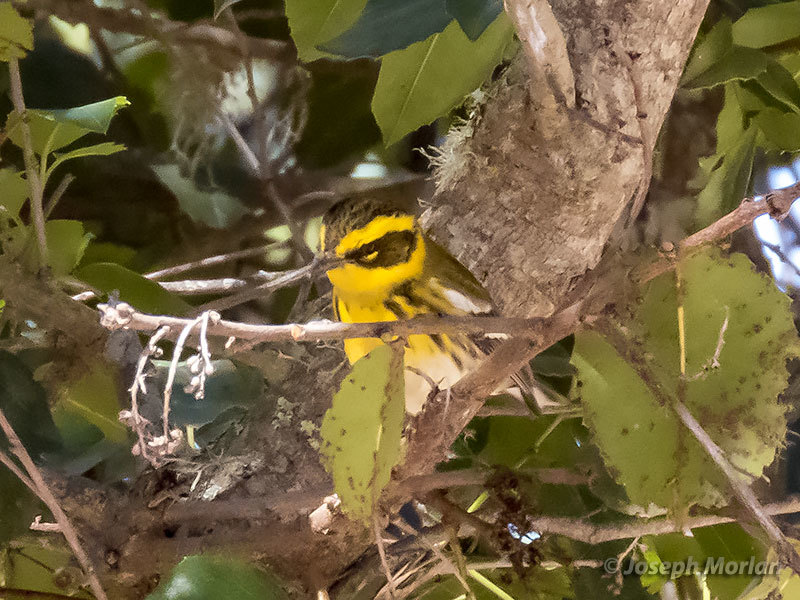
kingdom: Animalia
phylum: Chordata
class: Aves
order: Passeriformes
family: Parulidae
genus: Setophaga
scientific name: Setophaga townsendi
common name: Townsend's warbler
